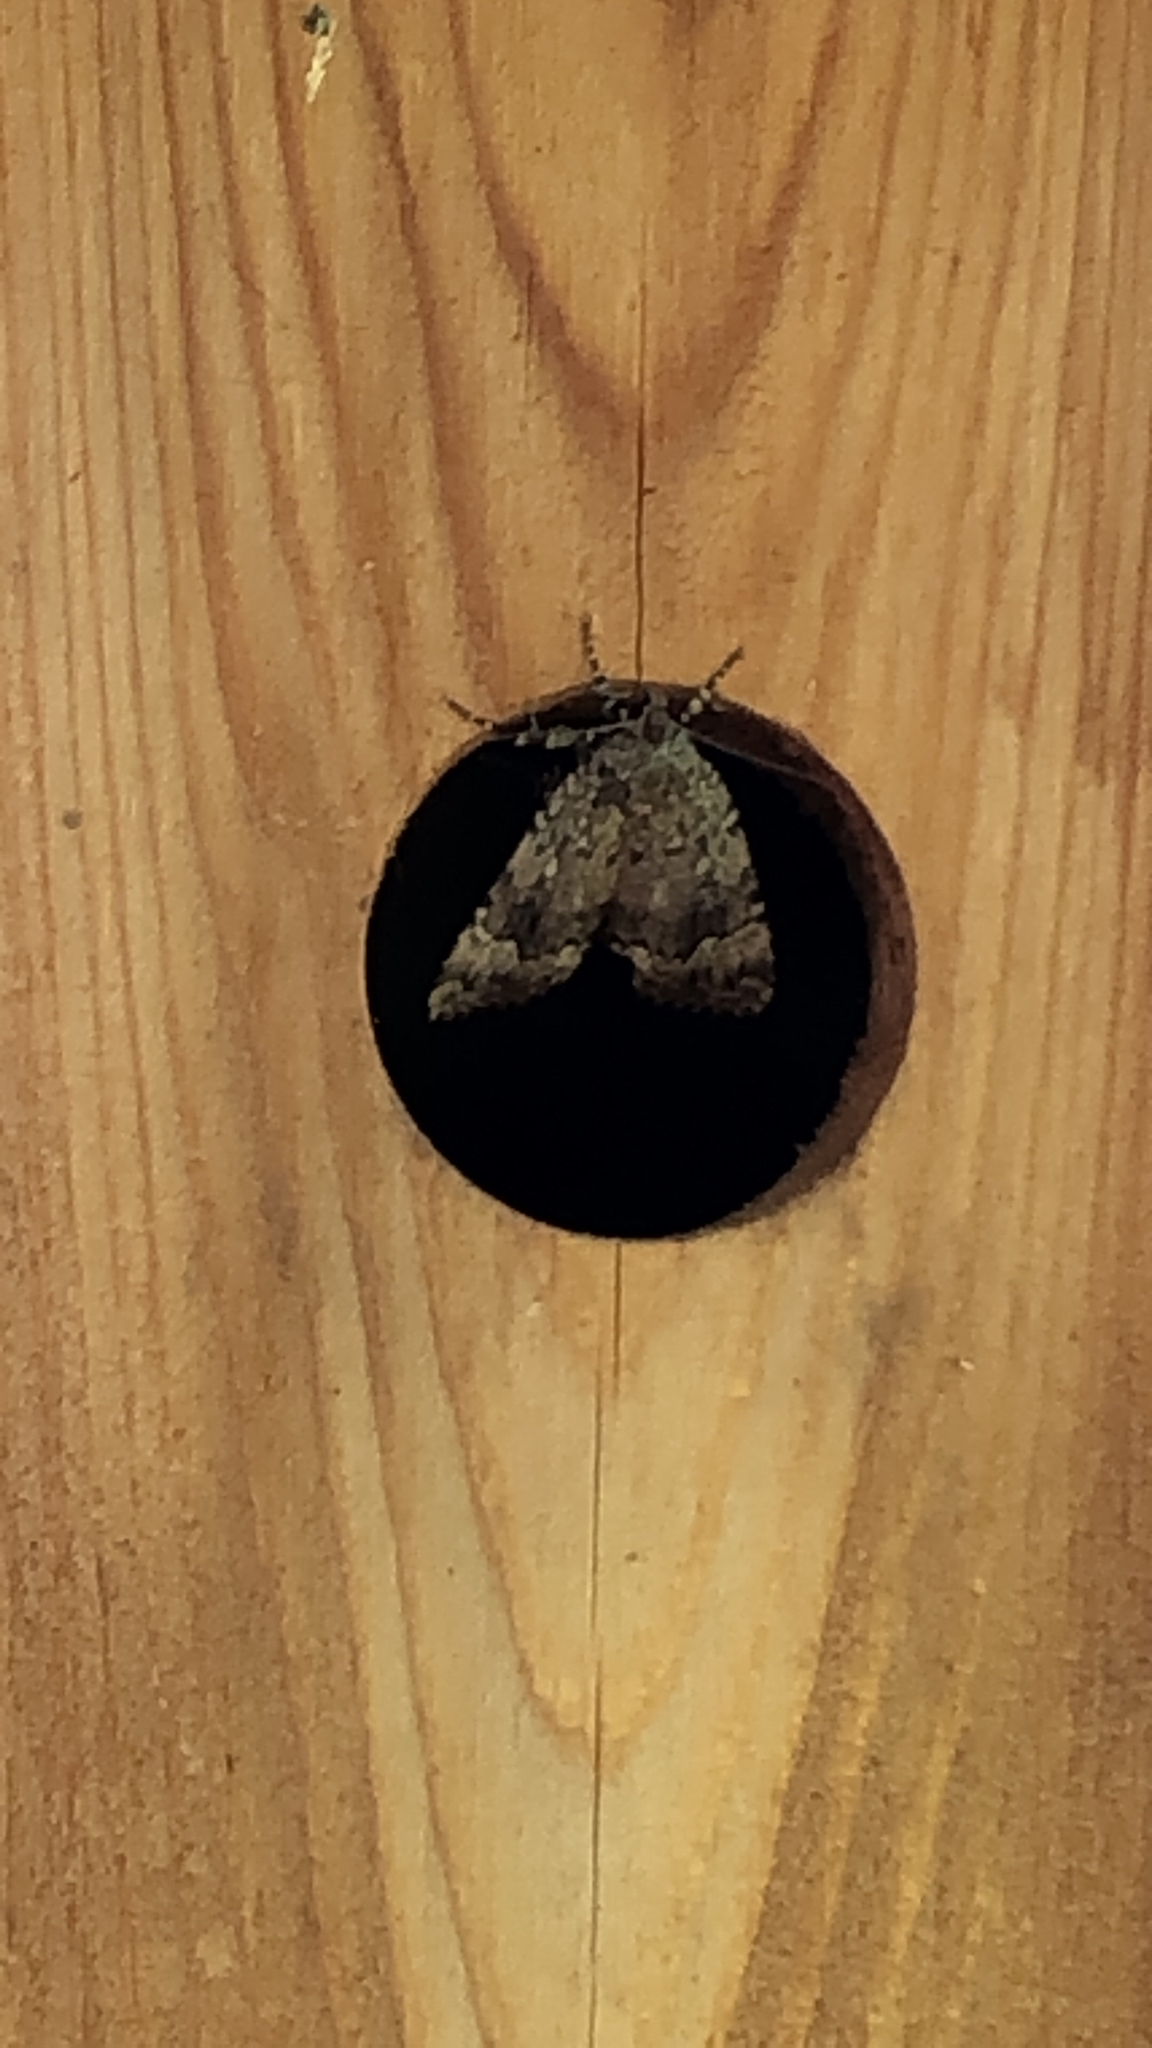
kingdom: Animalia
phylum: Arthropoda
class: Insecta
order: Lepidoptera
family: Noctuidae
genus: Amphipyra
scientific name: Amphipyra pyramidoides
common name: American copper underwing
